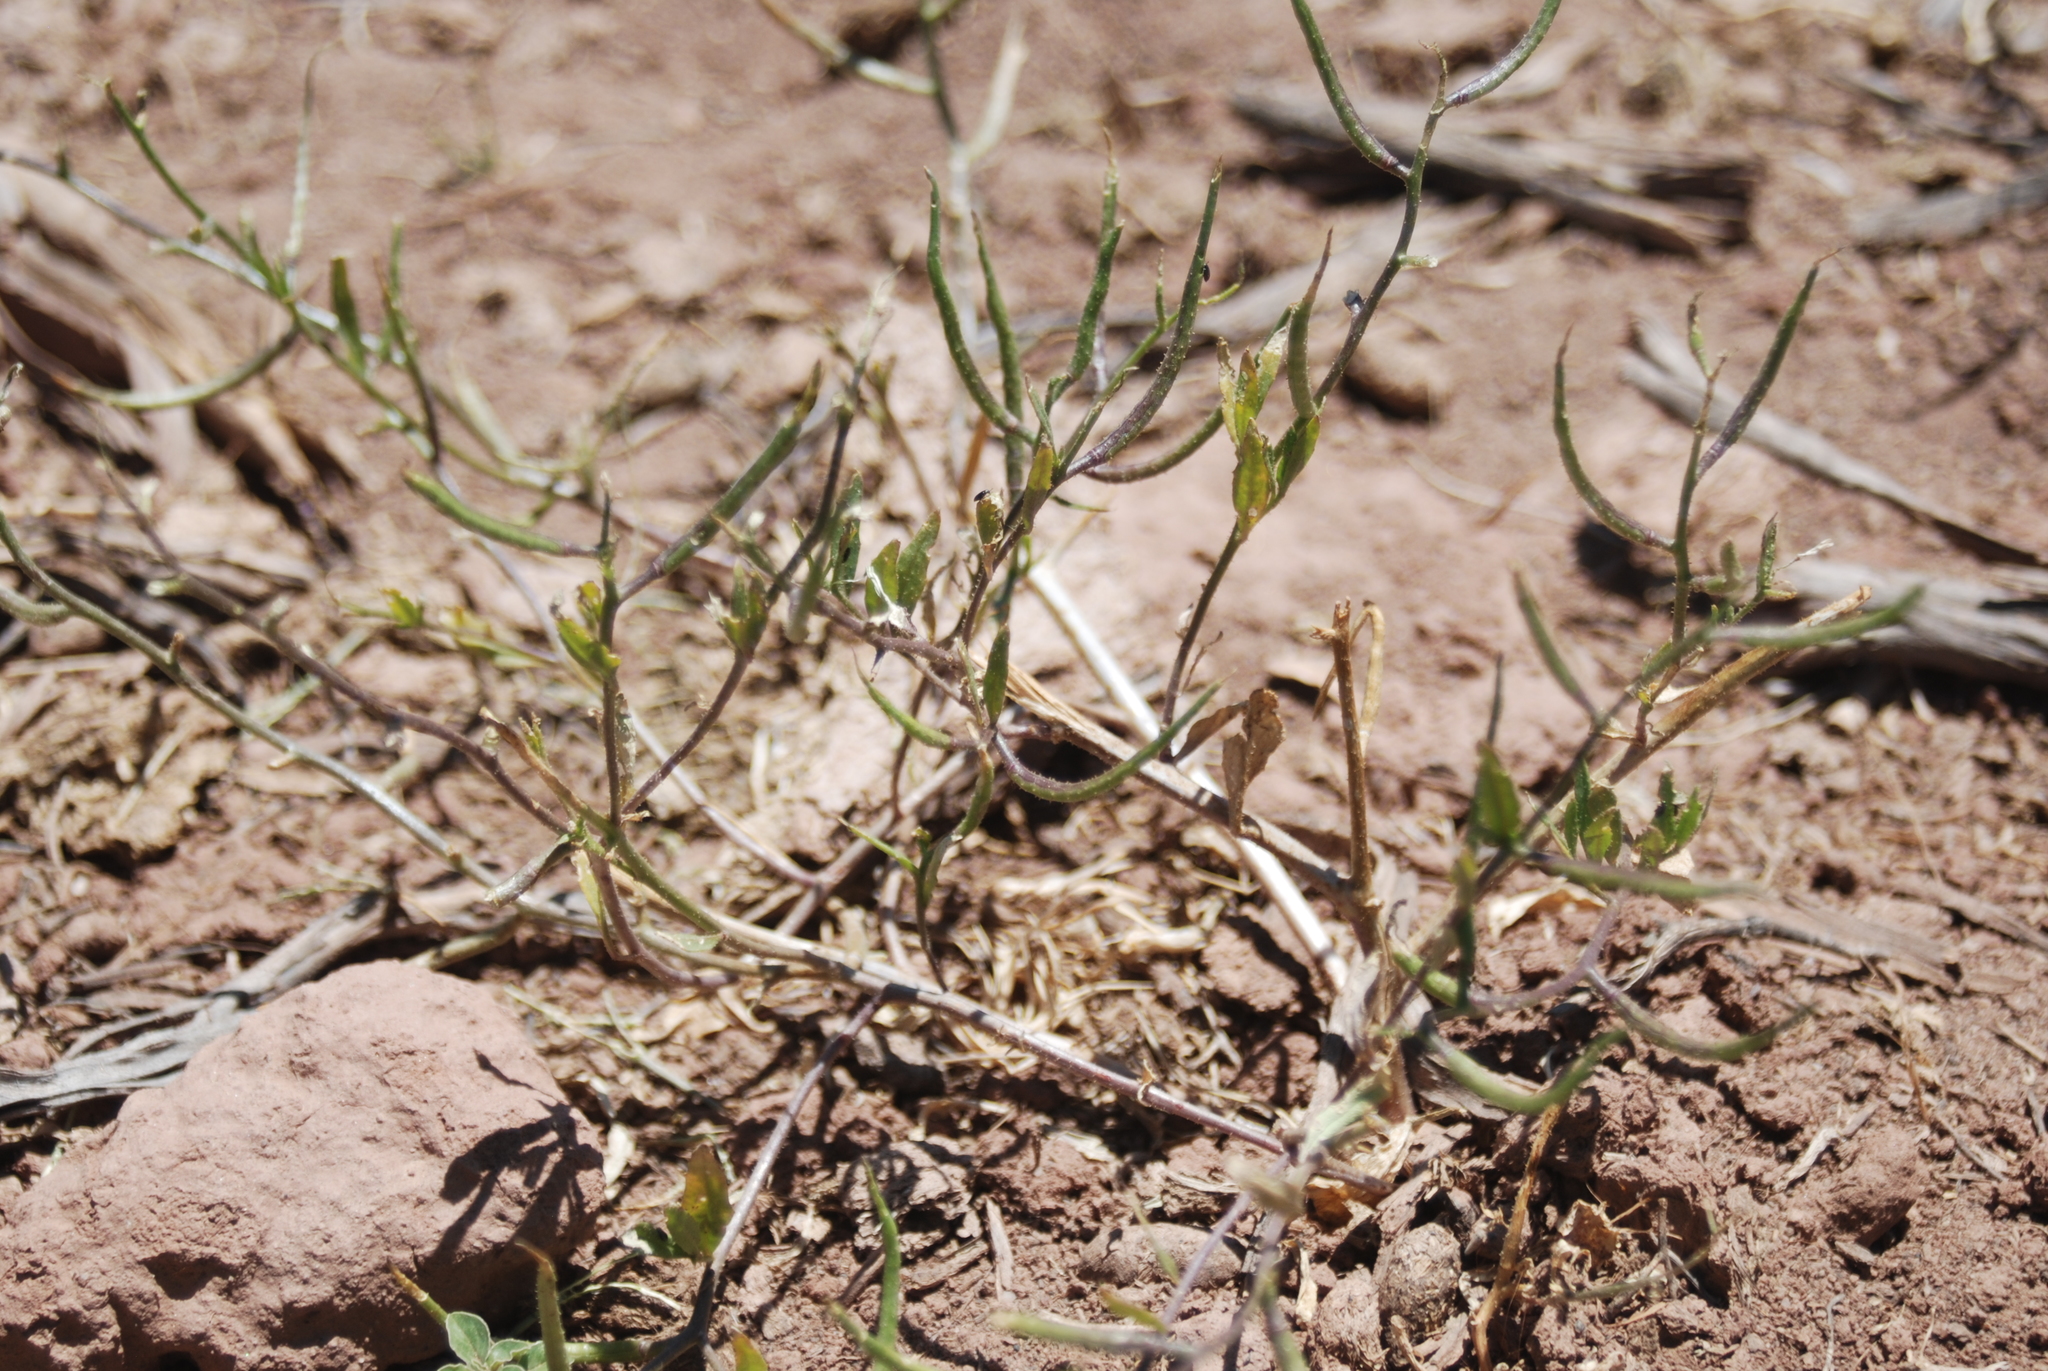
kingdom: Plantae
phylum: Tracheophyta
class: Magnoliopsida
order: Brassicales
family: Brassicaceae
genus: Chorispora
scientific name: Chorispora tenella
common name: Crossflower
